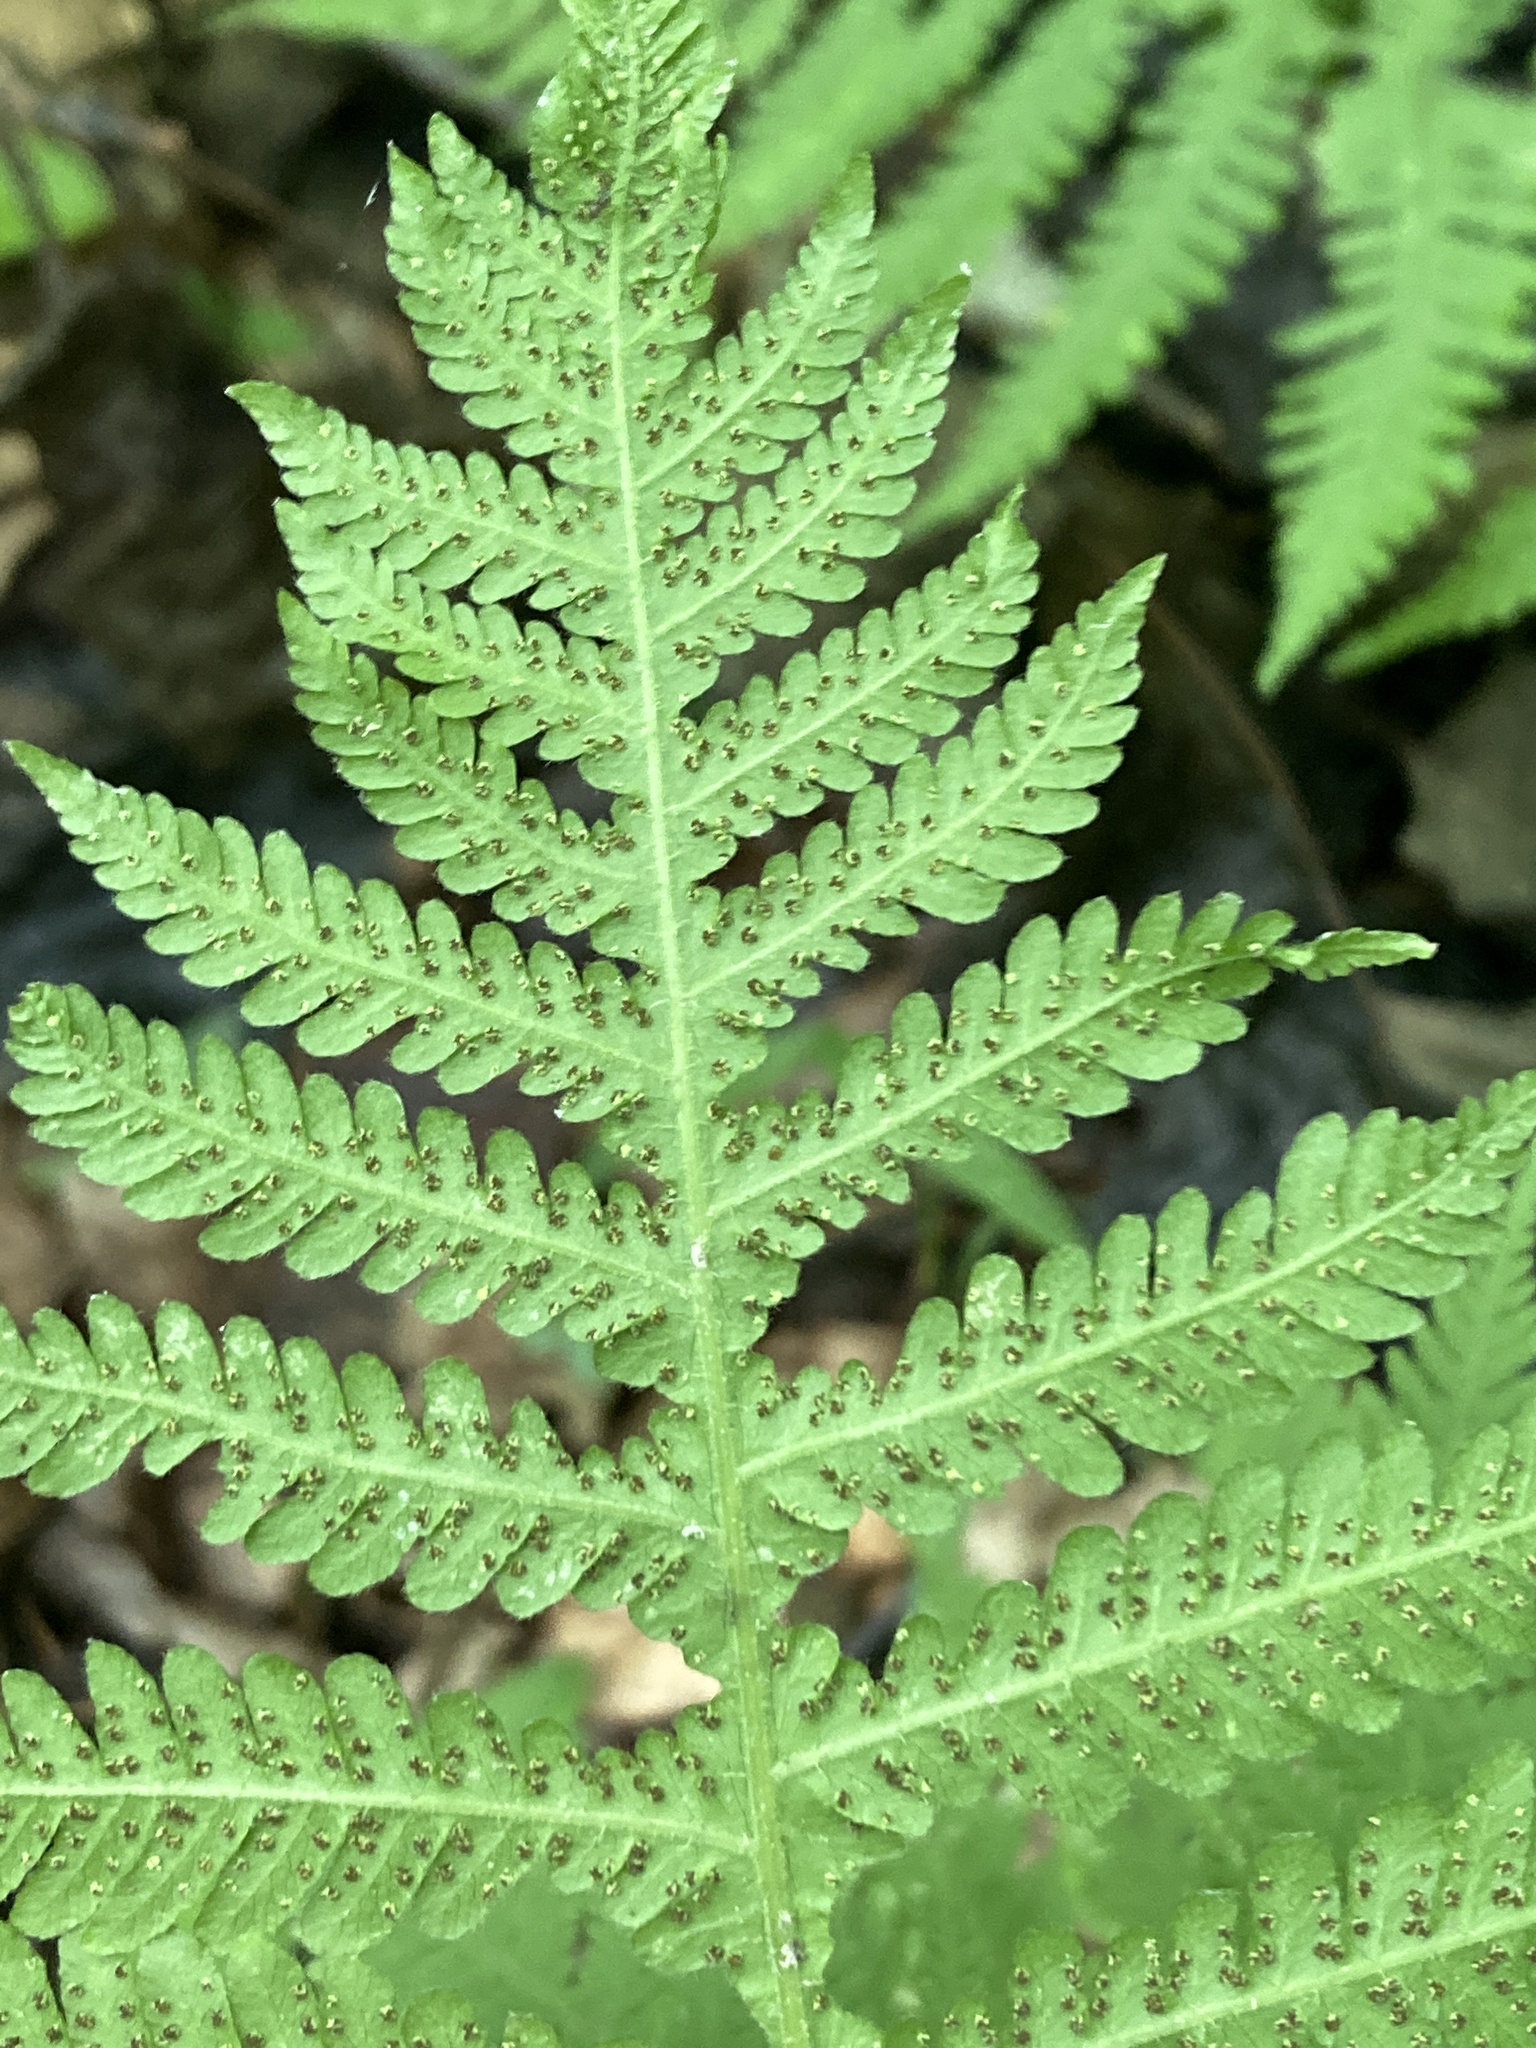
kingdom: Plantae
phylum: Tracheophyta
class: Polypodiopsida
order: Polypodiales
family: Thelypteridaceae
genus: Phegopteris
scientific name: Phegopteris hexagonoptera
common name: Broad beech fern
